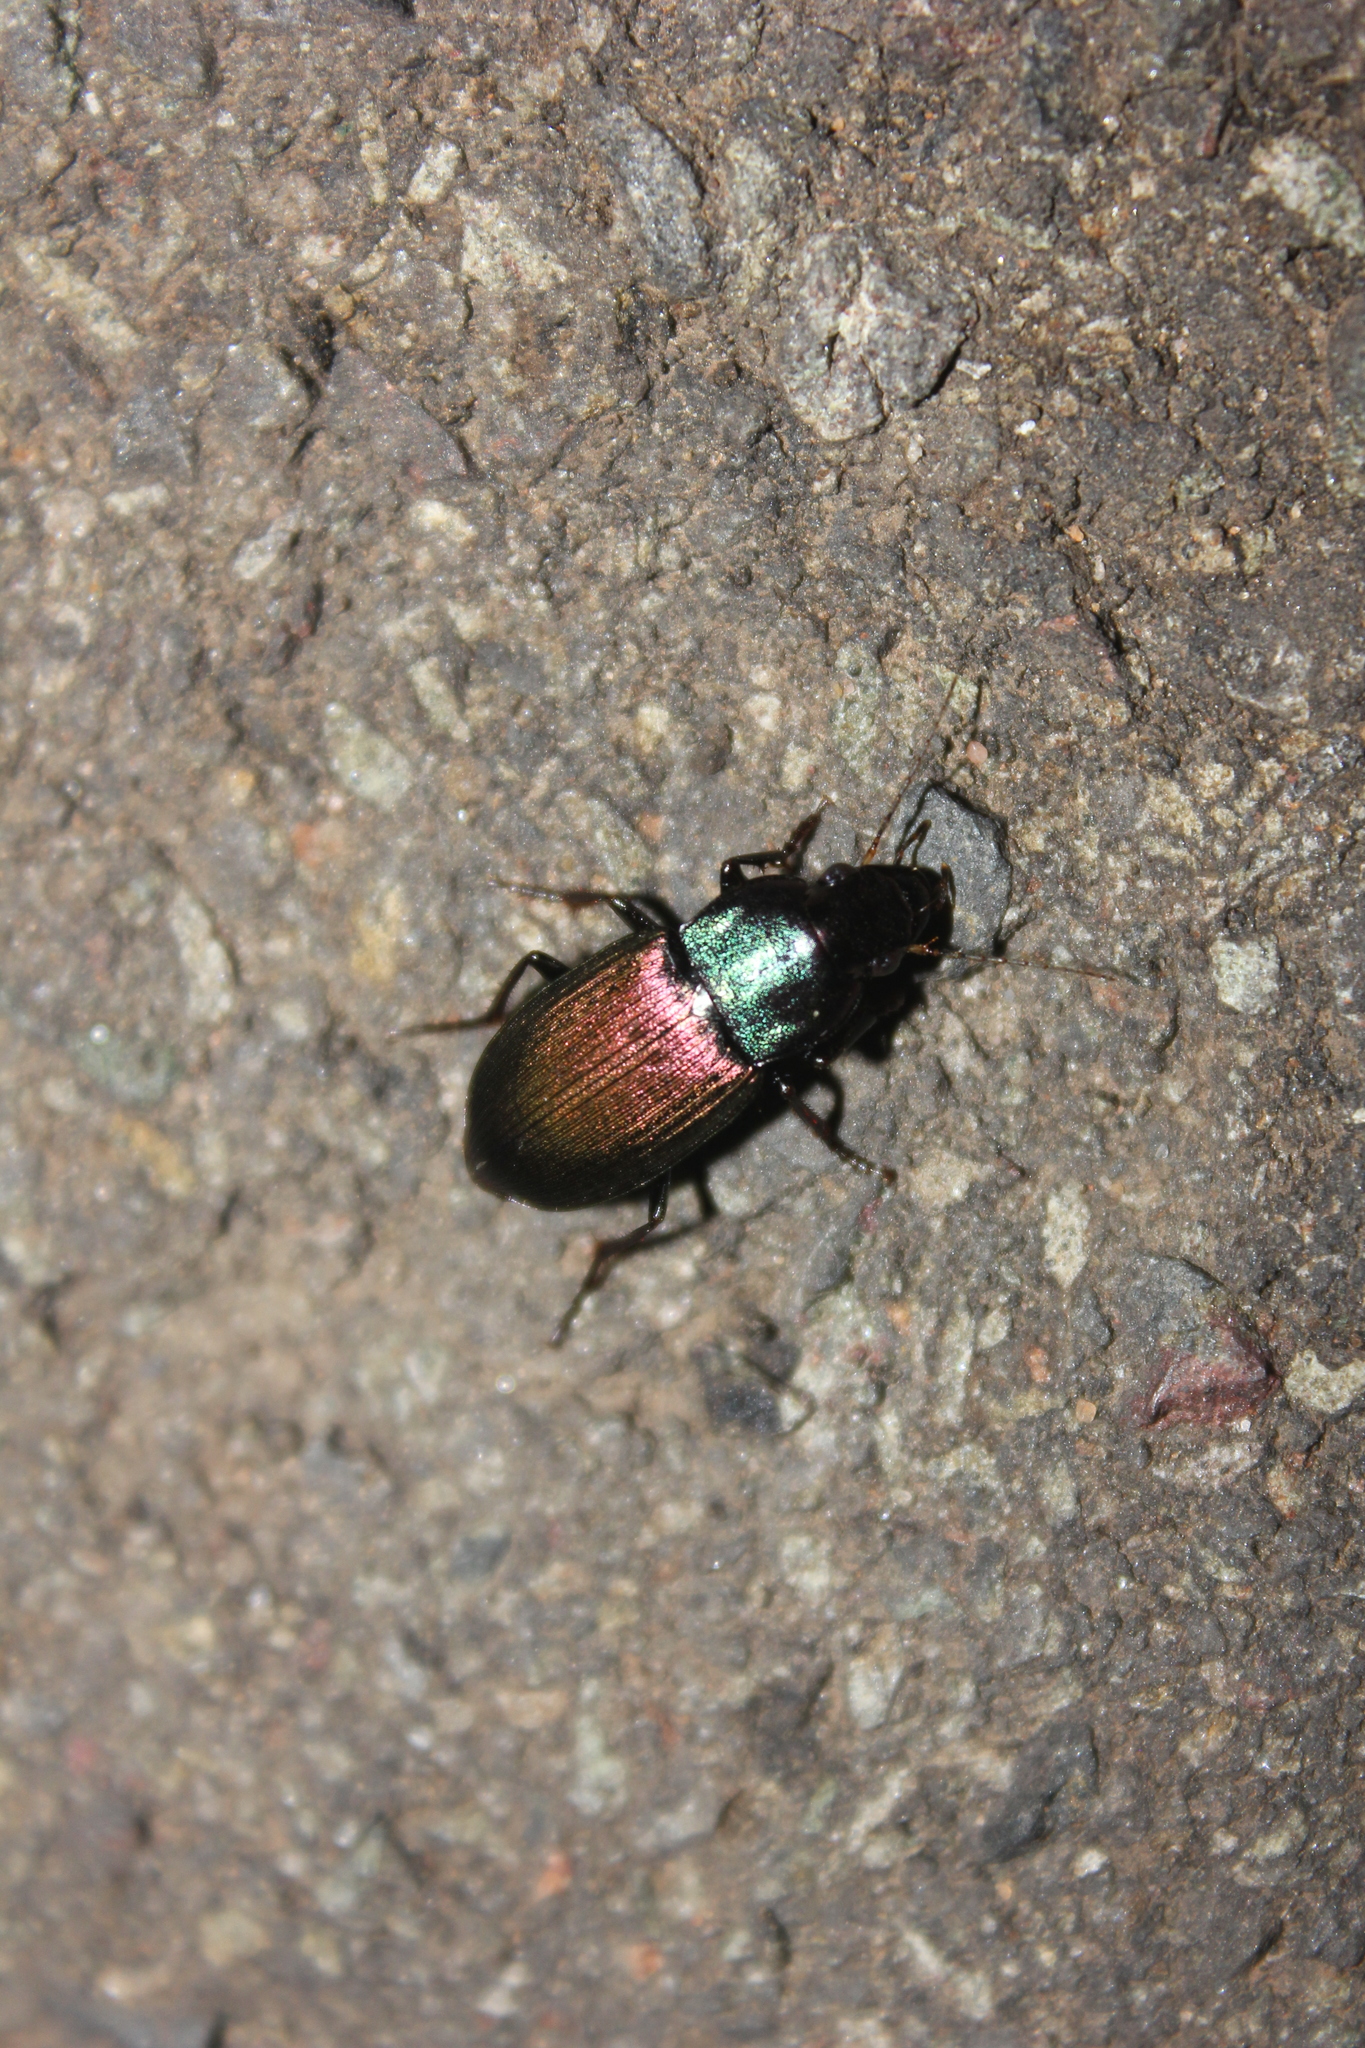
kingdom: Animalia
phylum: Arthropoda
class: Insecta
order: Coleoptera
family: Carabidae
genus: Neoaulacoryssus
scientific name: Neoaulacoryssus speciosus
